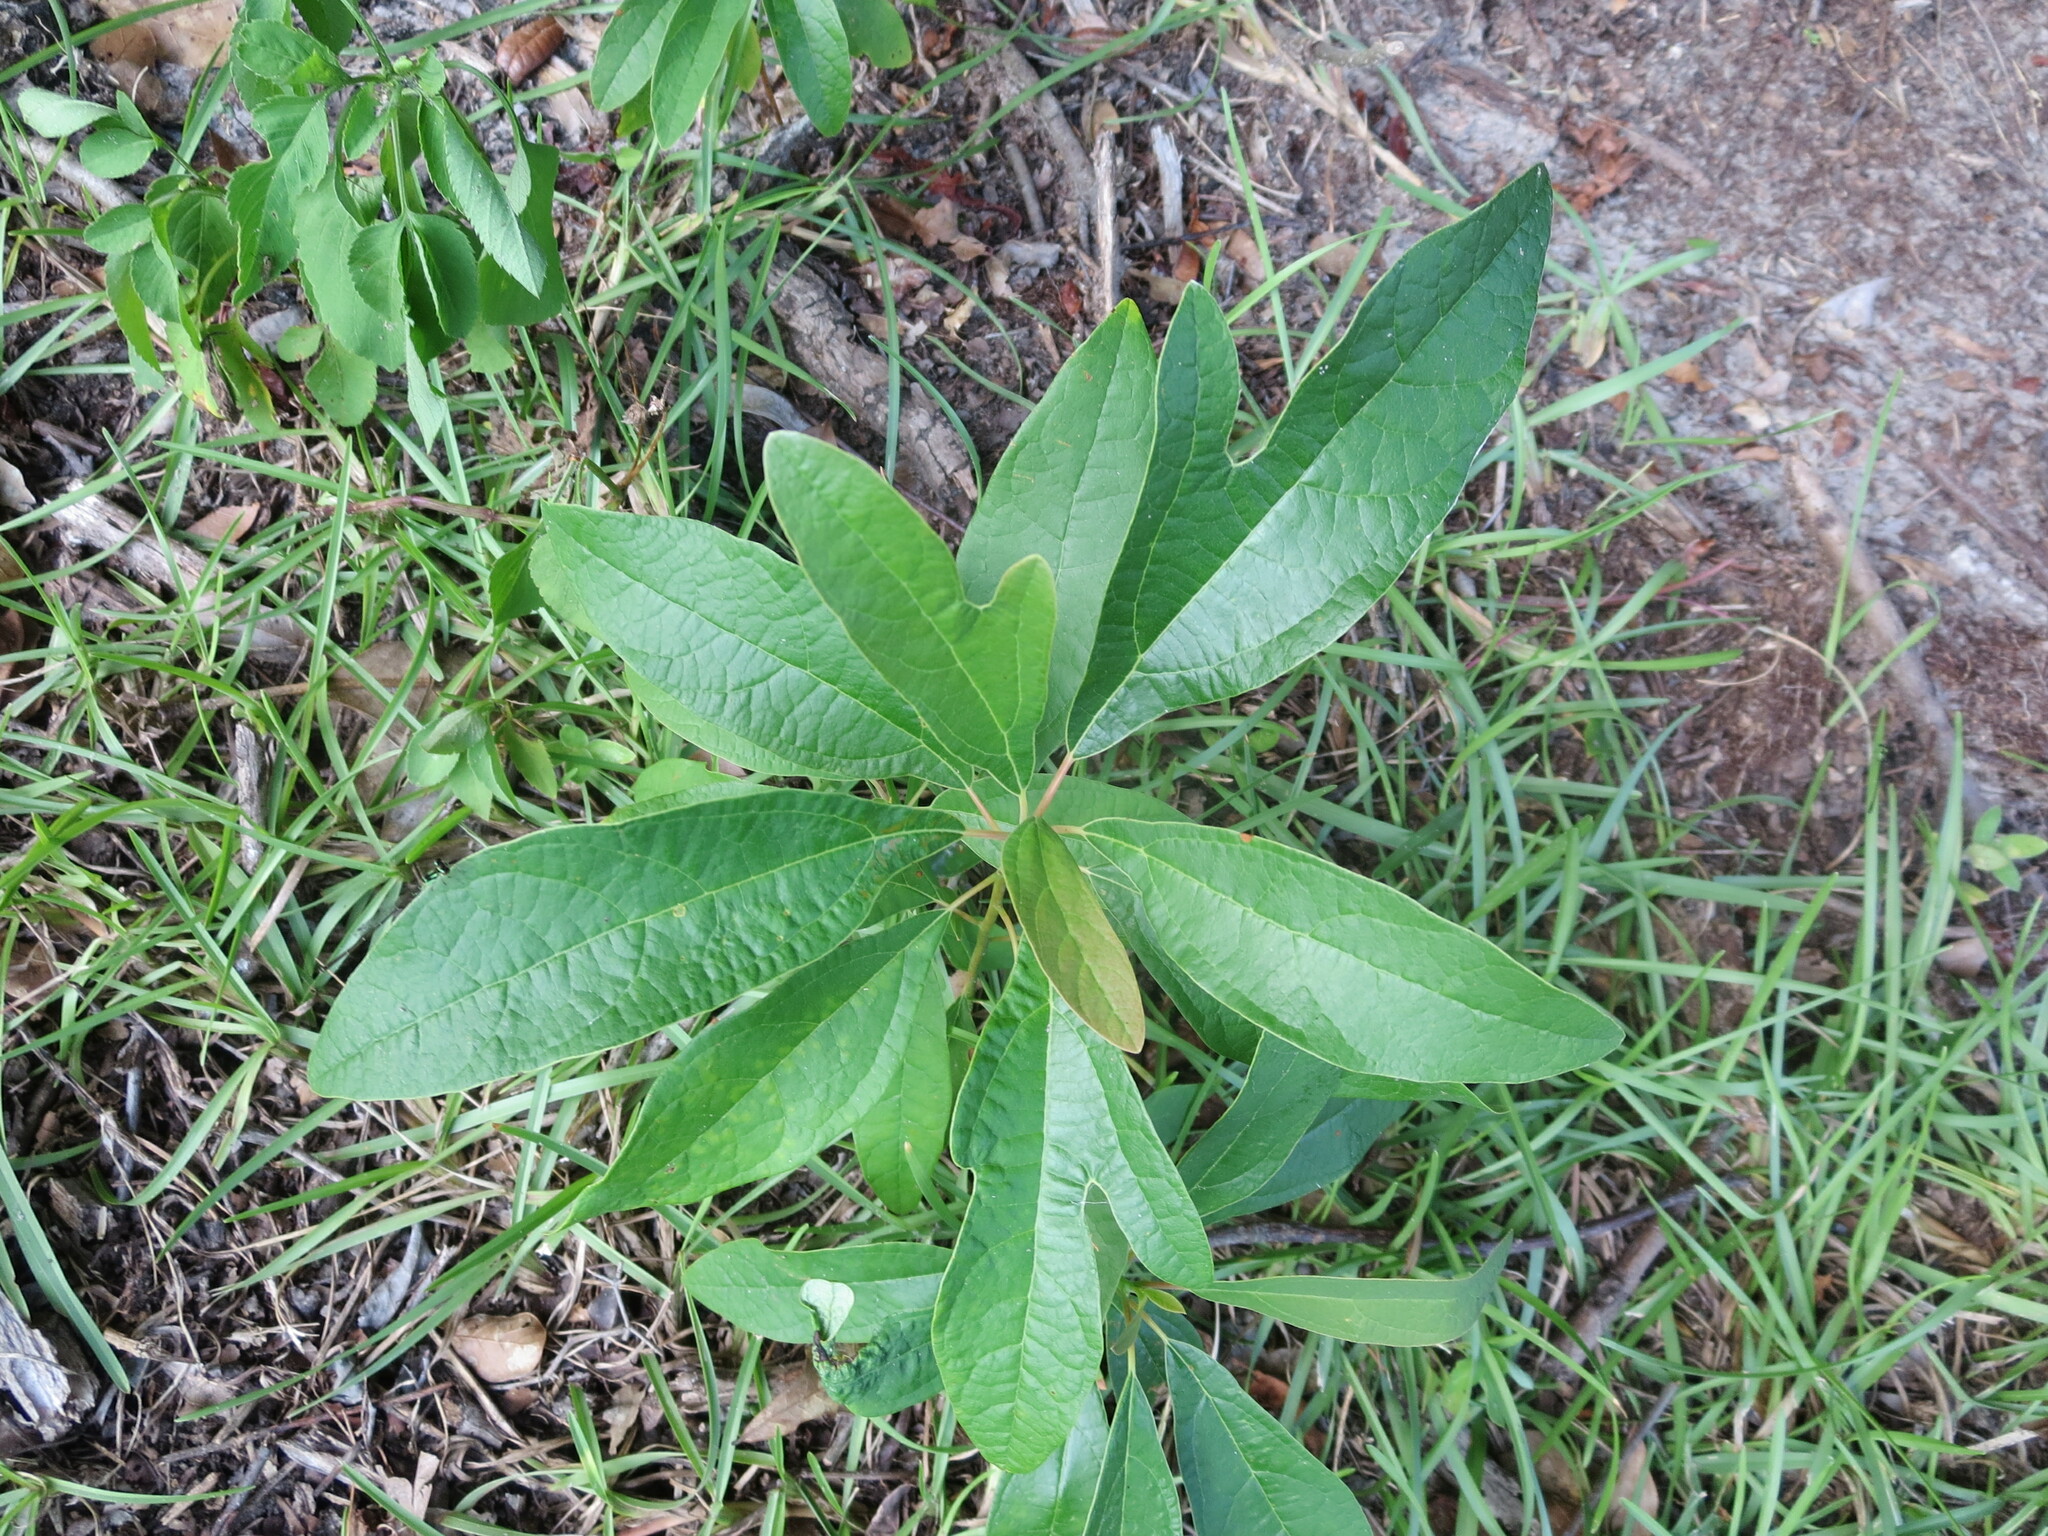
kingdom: Plantae
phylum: Tracheophyta
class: Magnoliopsida
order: Laurales
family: Lauraceae
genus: Sassafras
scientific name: Sassafras albidum
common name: Sassafras
